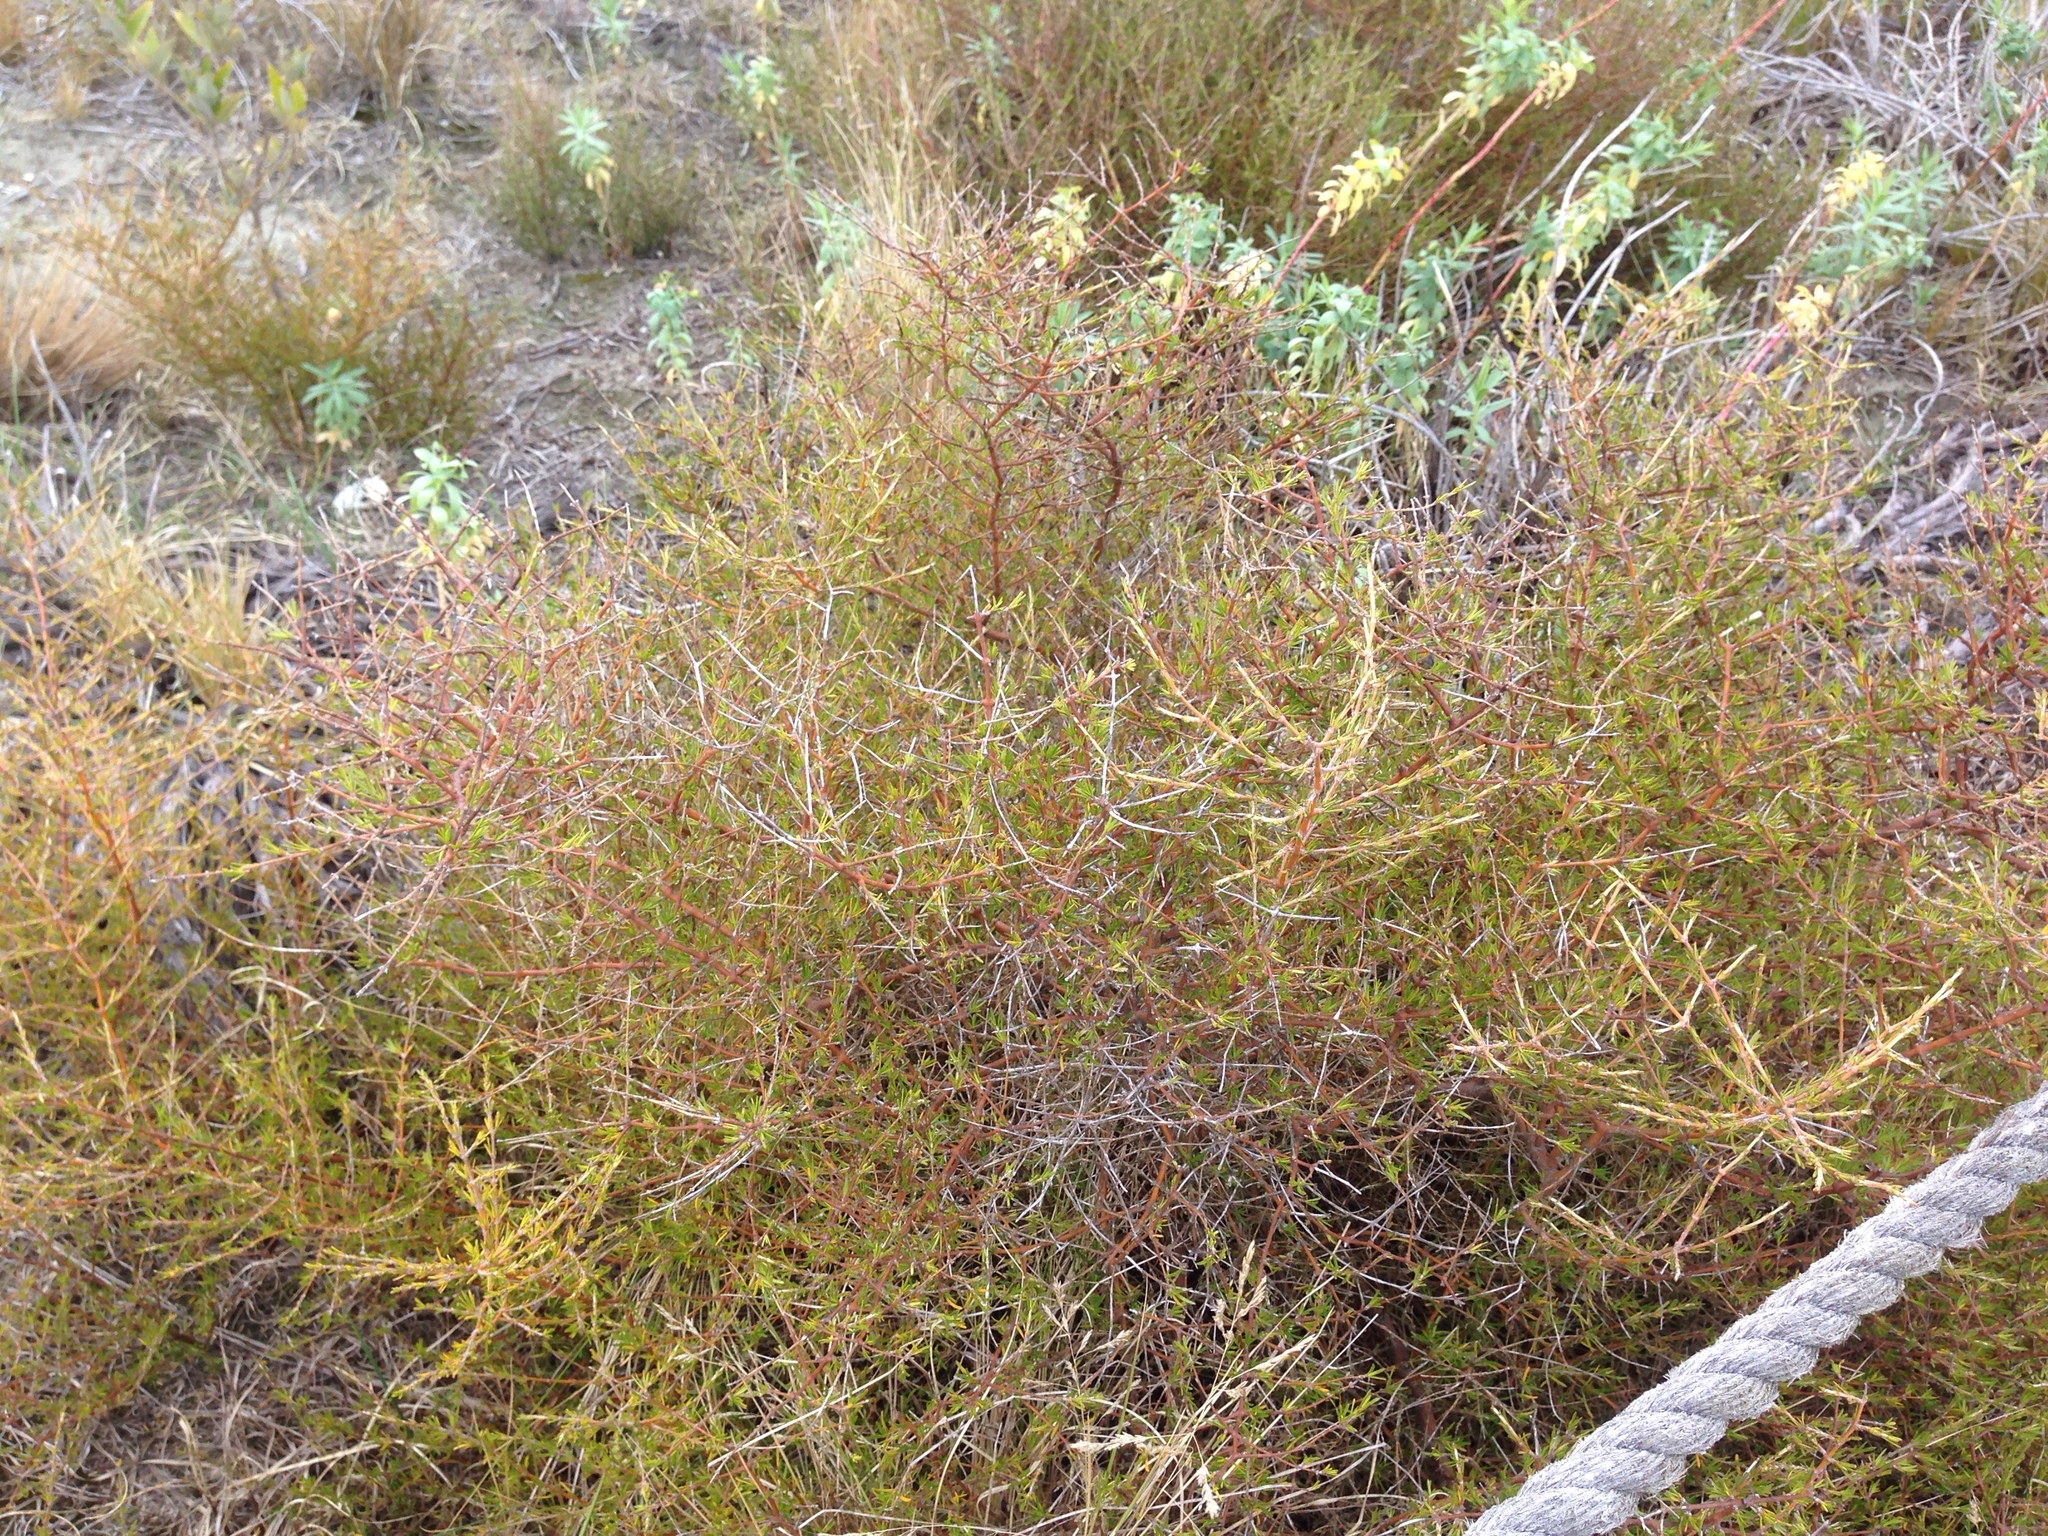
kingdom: Plantae
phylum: Tracheophyta
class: Magnoliopsida
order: Gentianales
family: Rubiaceae
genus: Coprosma
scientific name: Coprosma acerosa
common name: Sand coprosma
